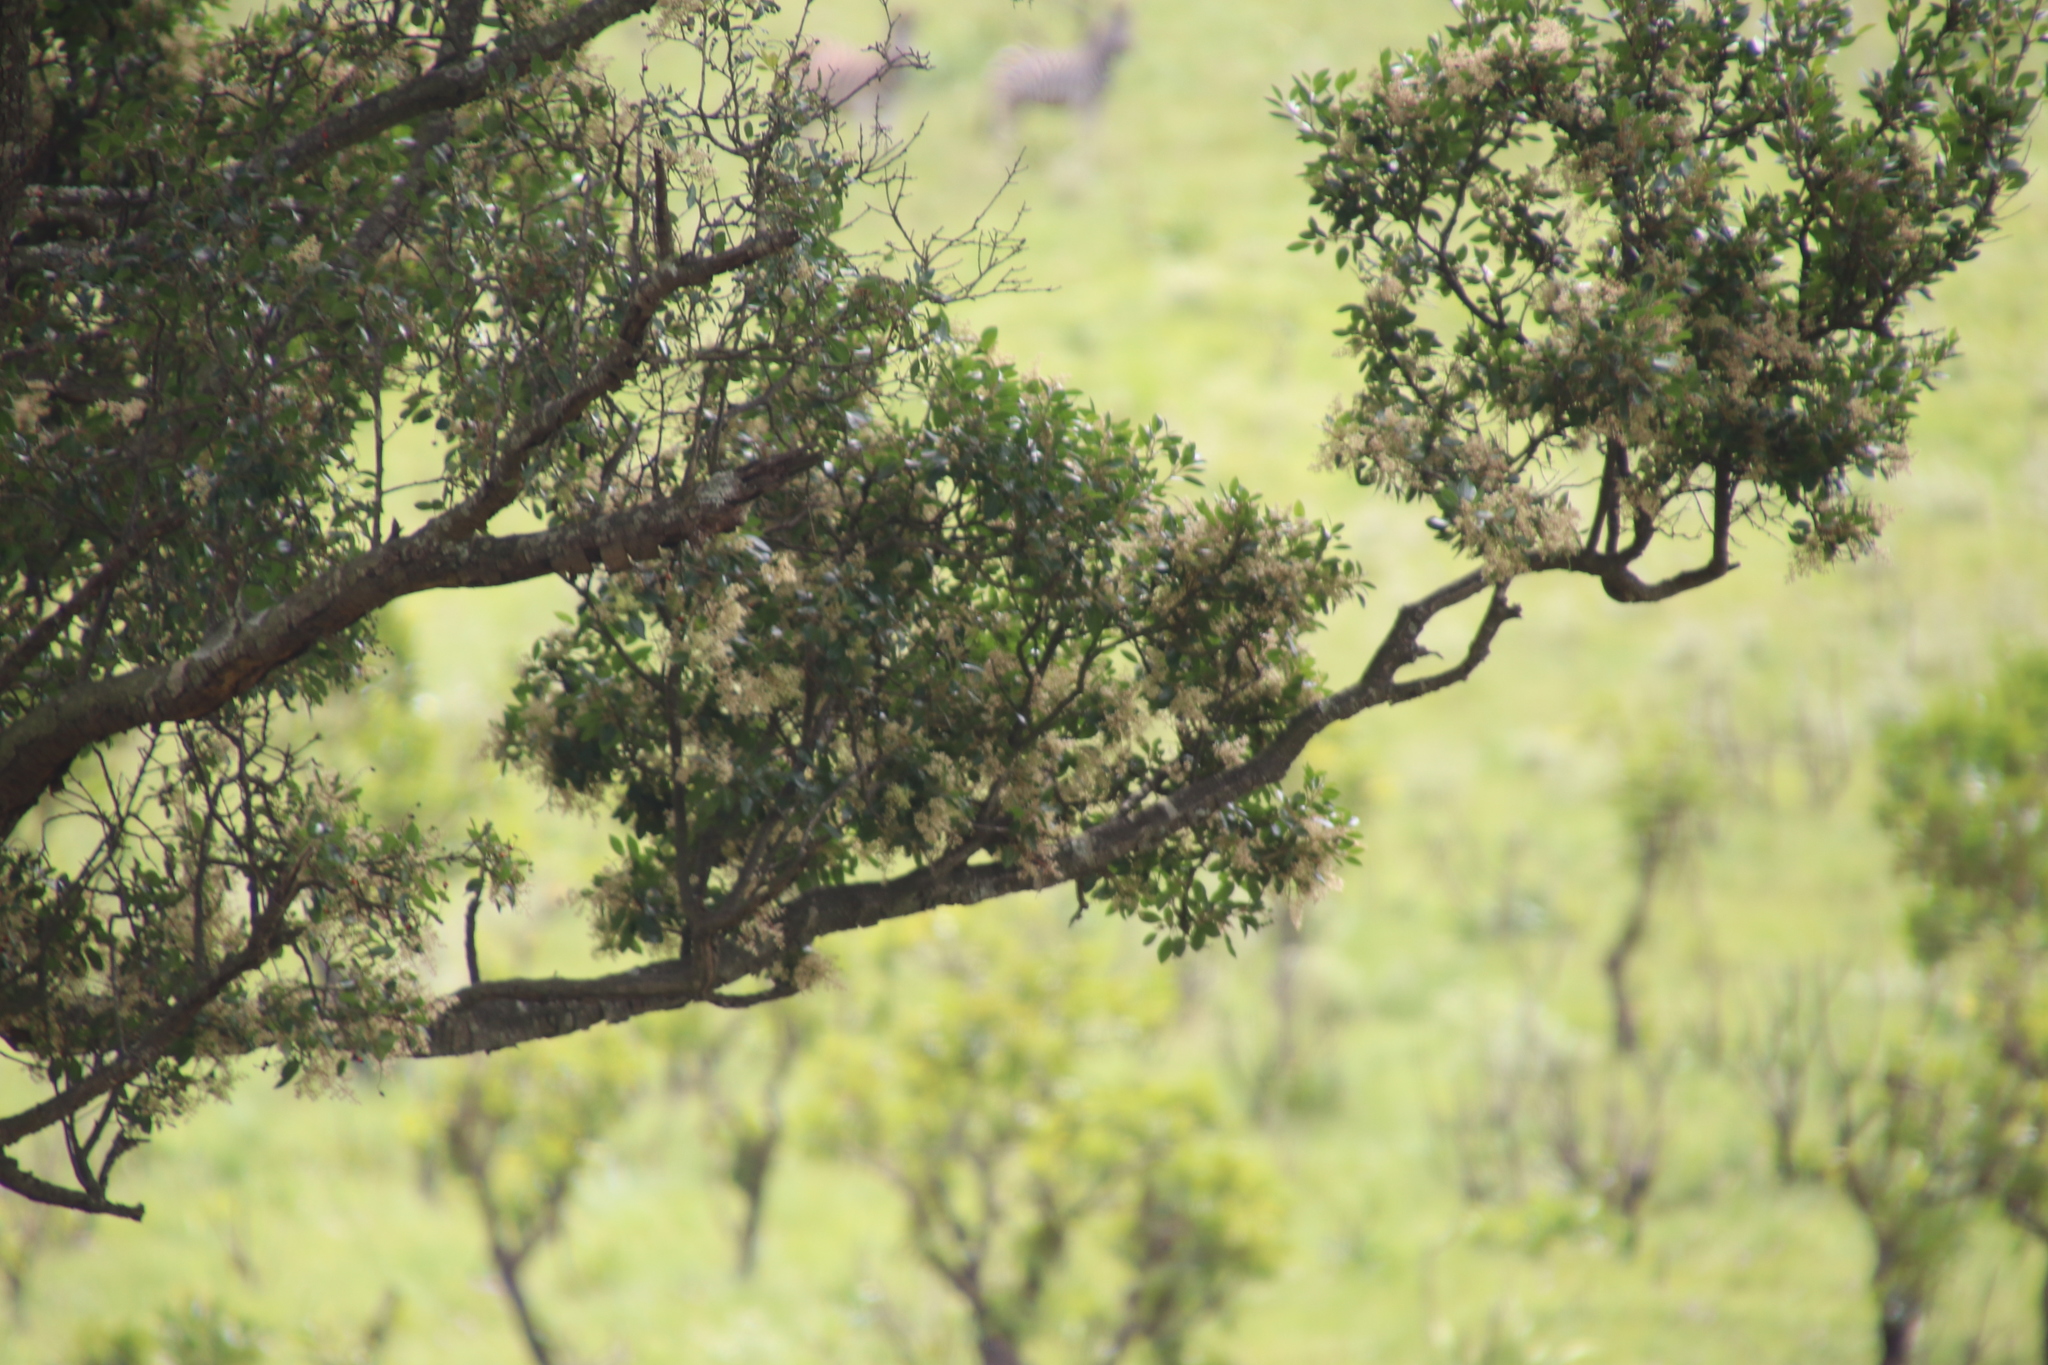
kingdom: Plantae
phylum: Tracheophyta
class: Magnoliopsida
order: Metteniusales
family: Metteniusaceae
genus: Apodytes
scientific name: Apodytes dimidiata
